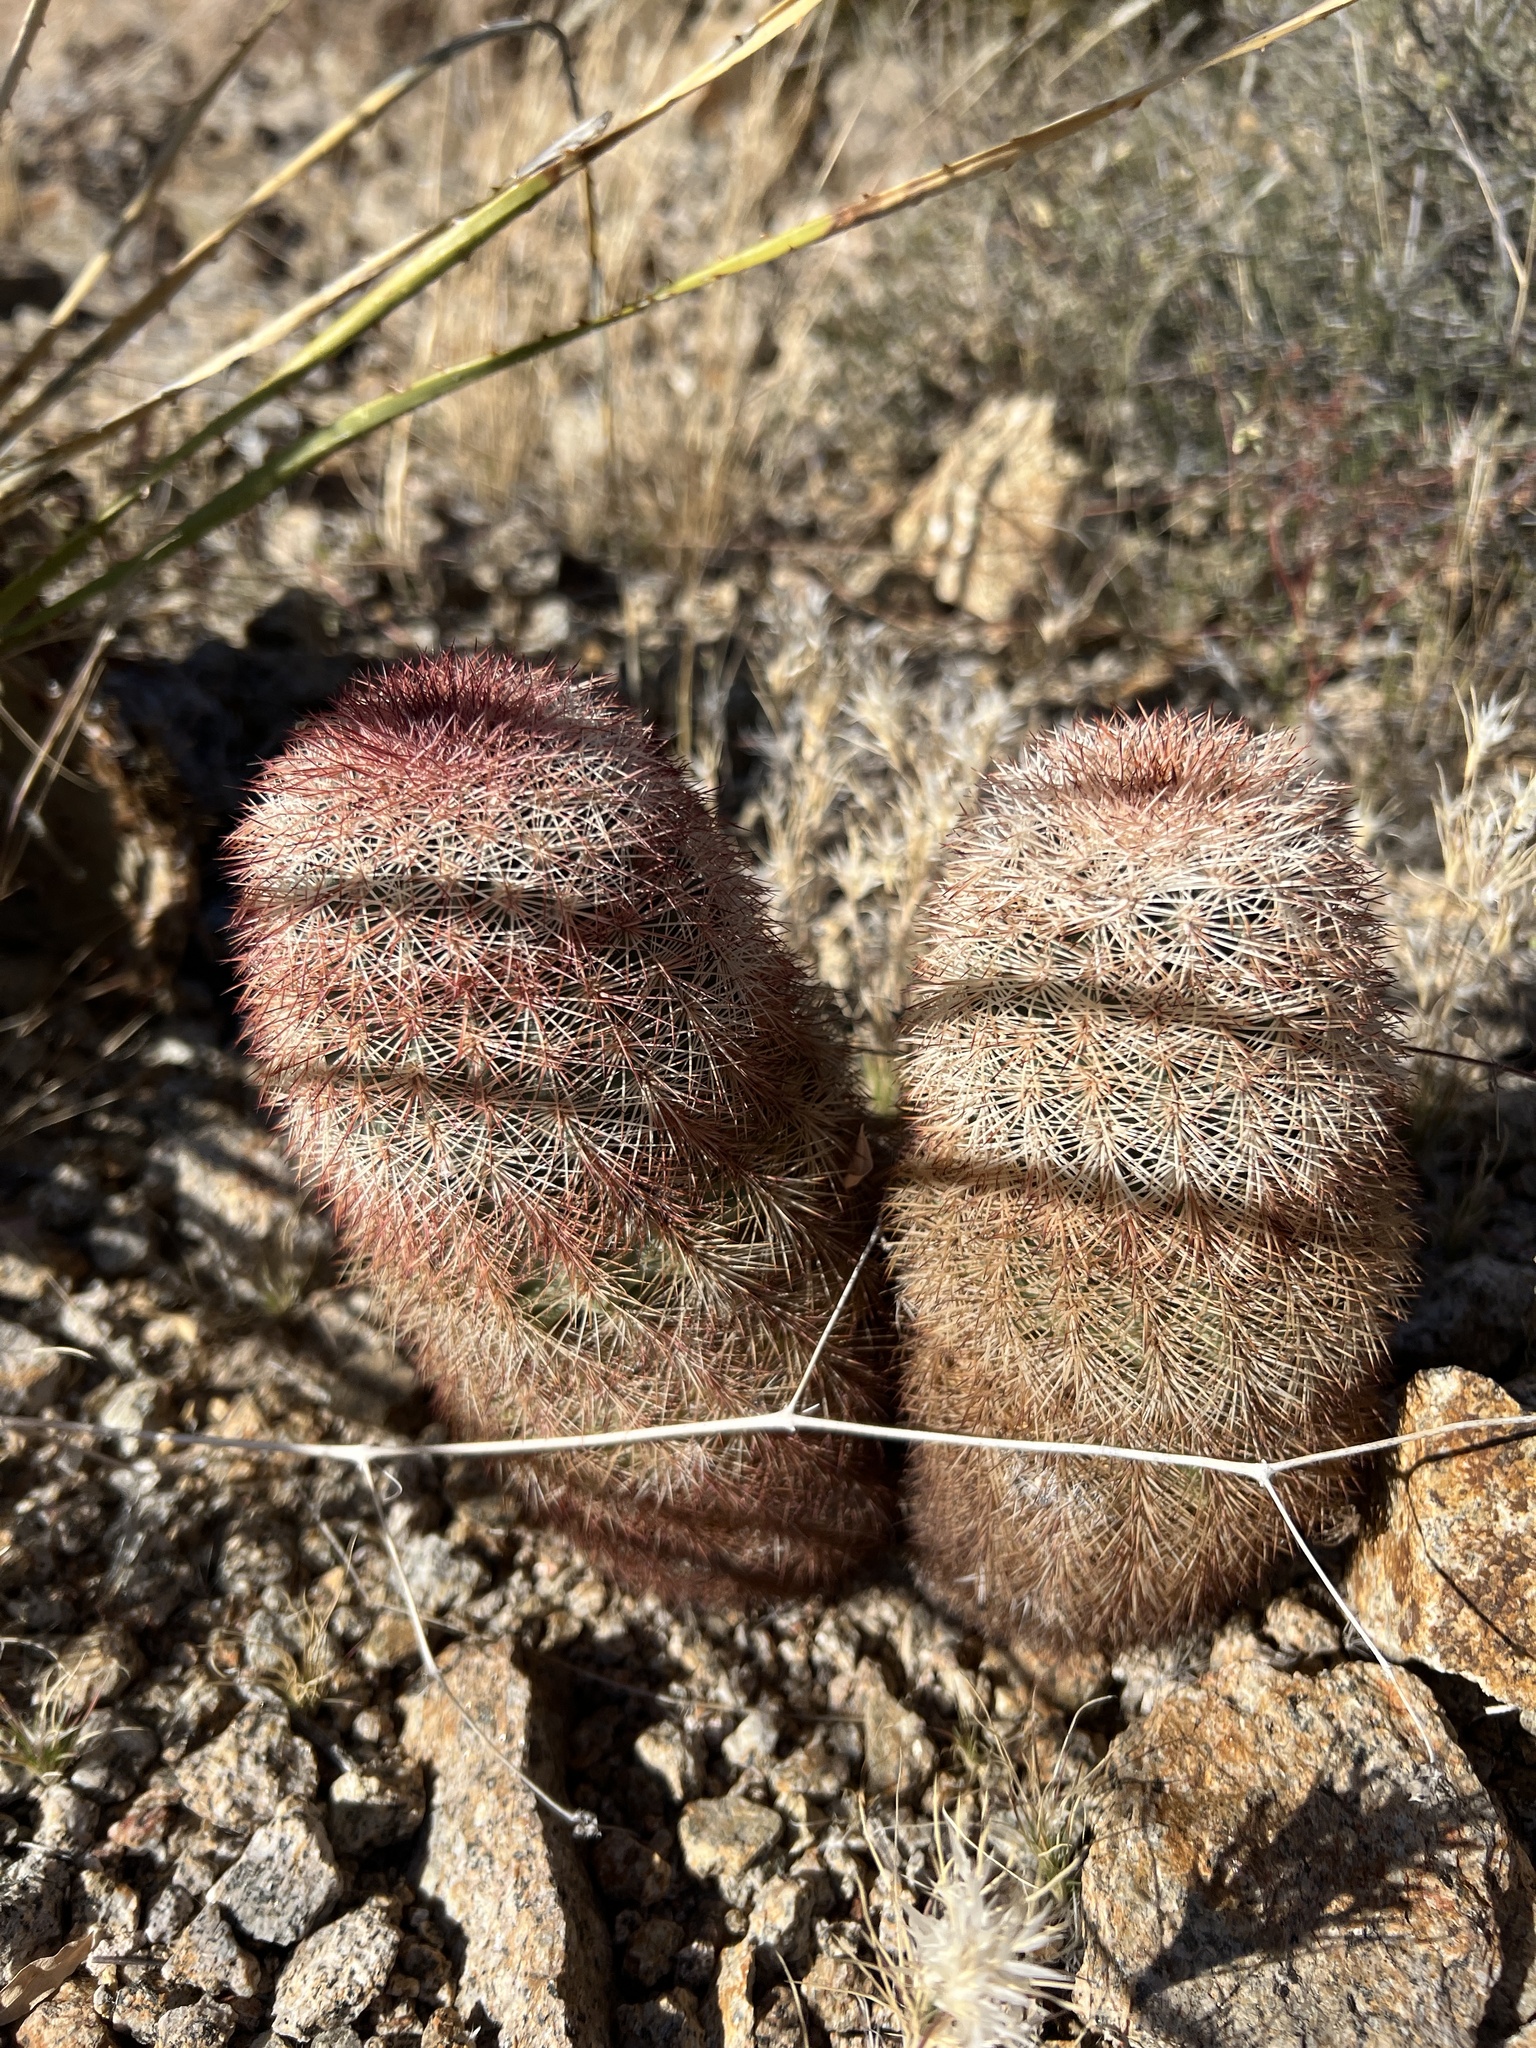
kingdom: Plantae
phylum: Tracheophyta
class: Magnoliopsida
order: Caryophyllales
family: Cactaceae
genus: Echinocereus
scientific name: Echinocereus dasyacanthus
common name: Spiny hedgehog cactus
